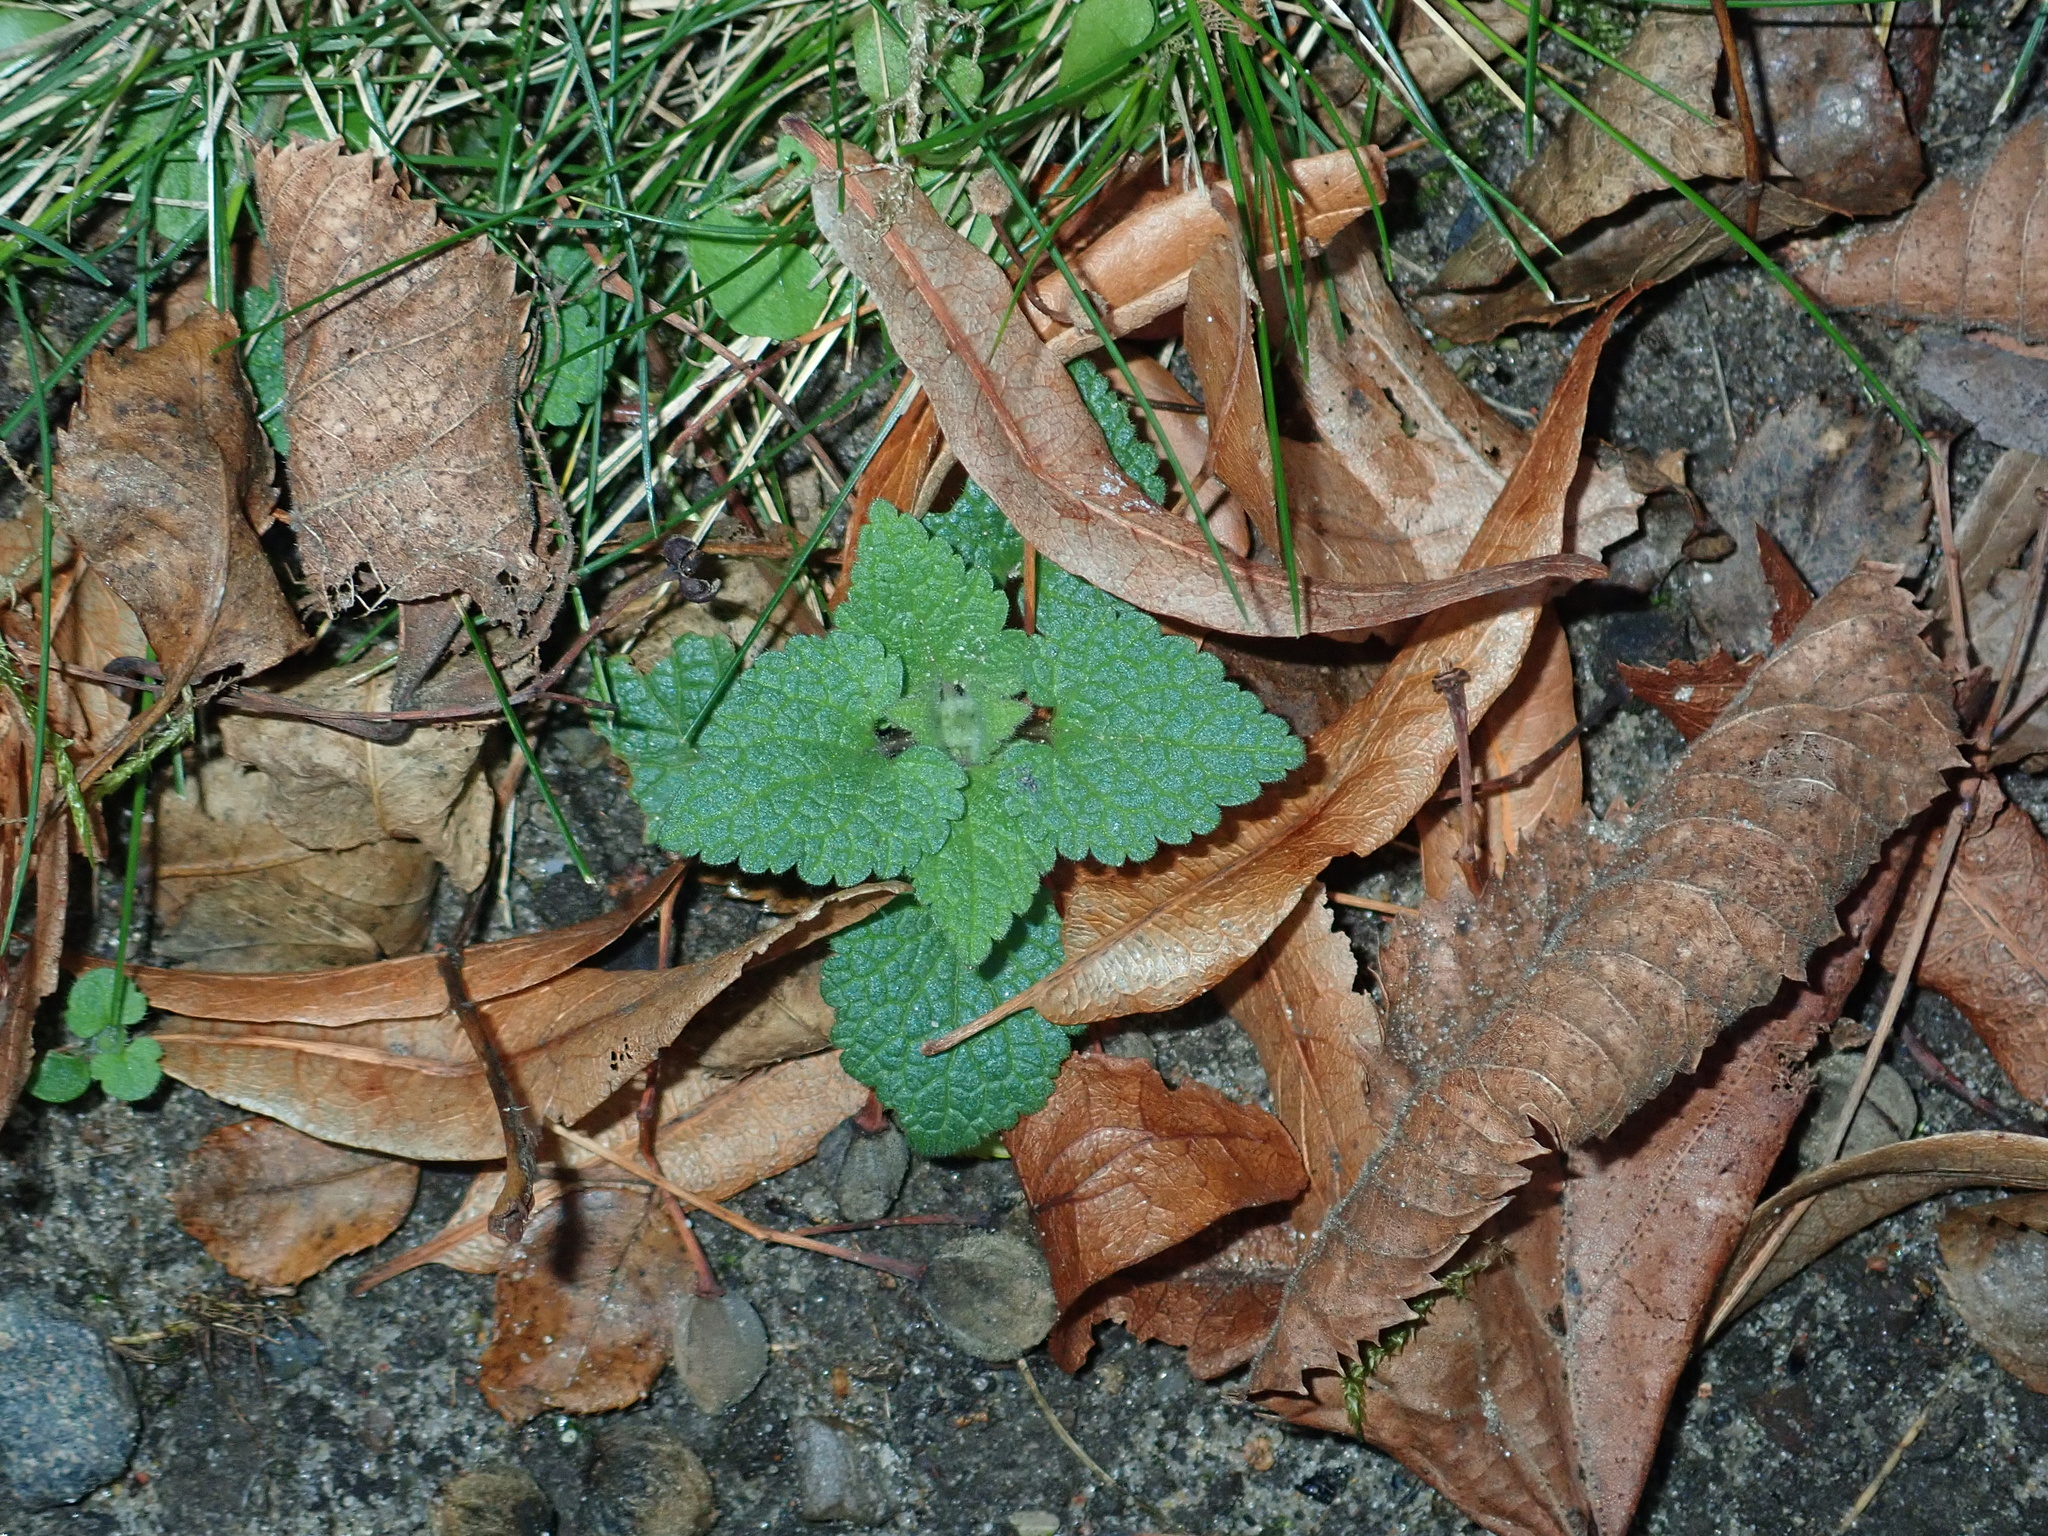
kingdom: Plantae
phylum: Tracheophyta
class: Magnoliopsida
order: Lamiales
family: Lamiaceae
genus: Lamium
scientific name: Lamium purpureum
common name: Red dead-nettle
